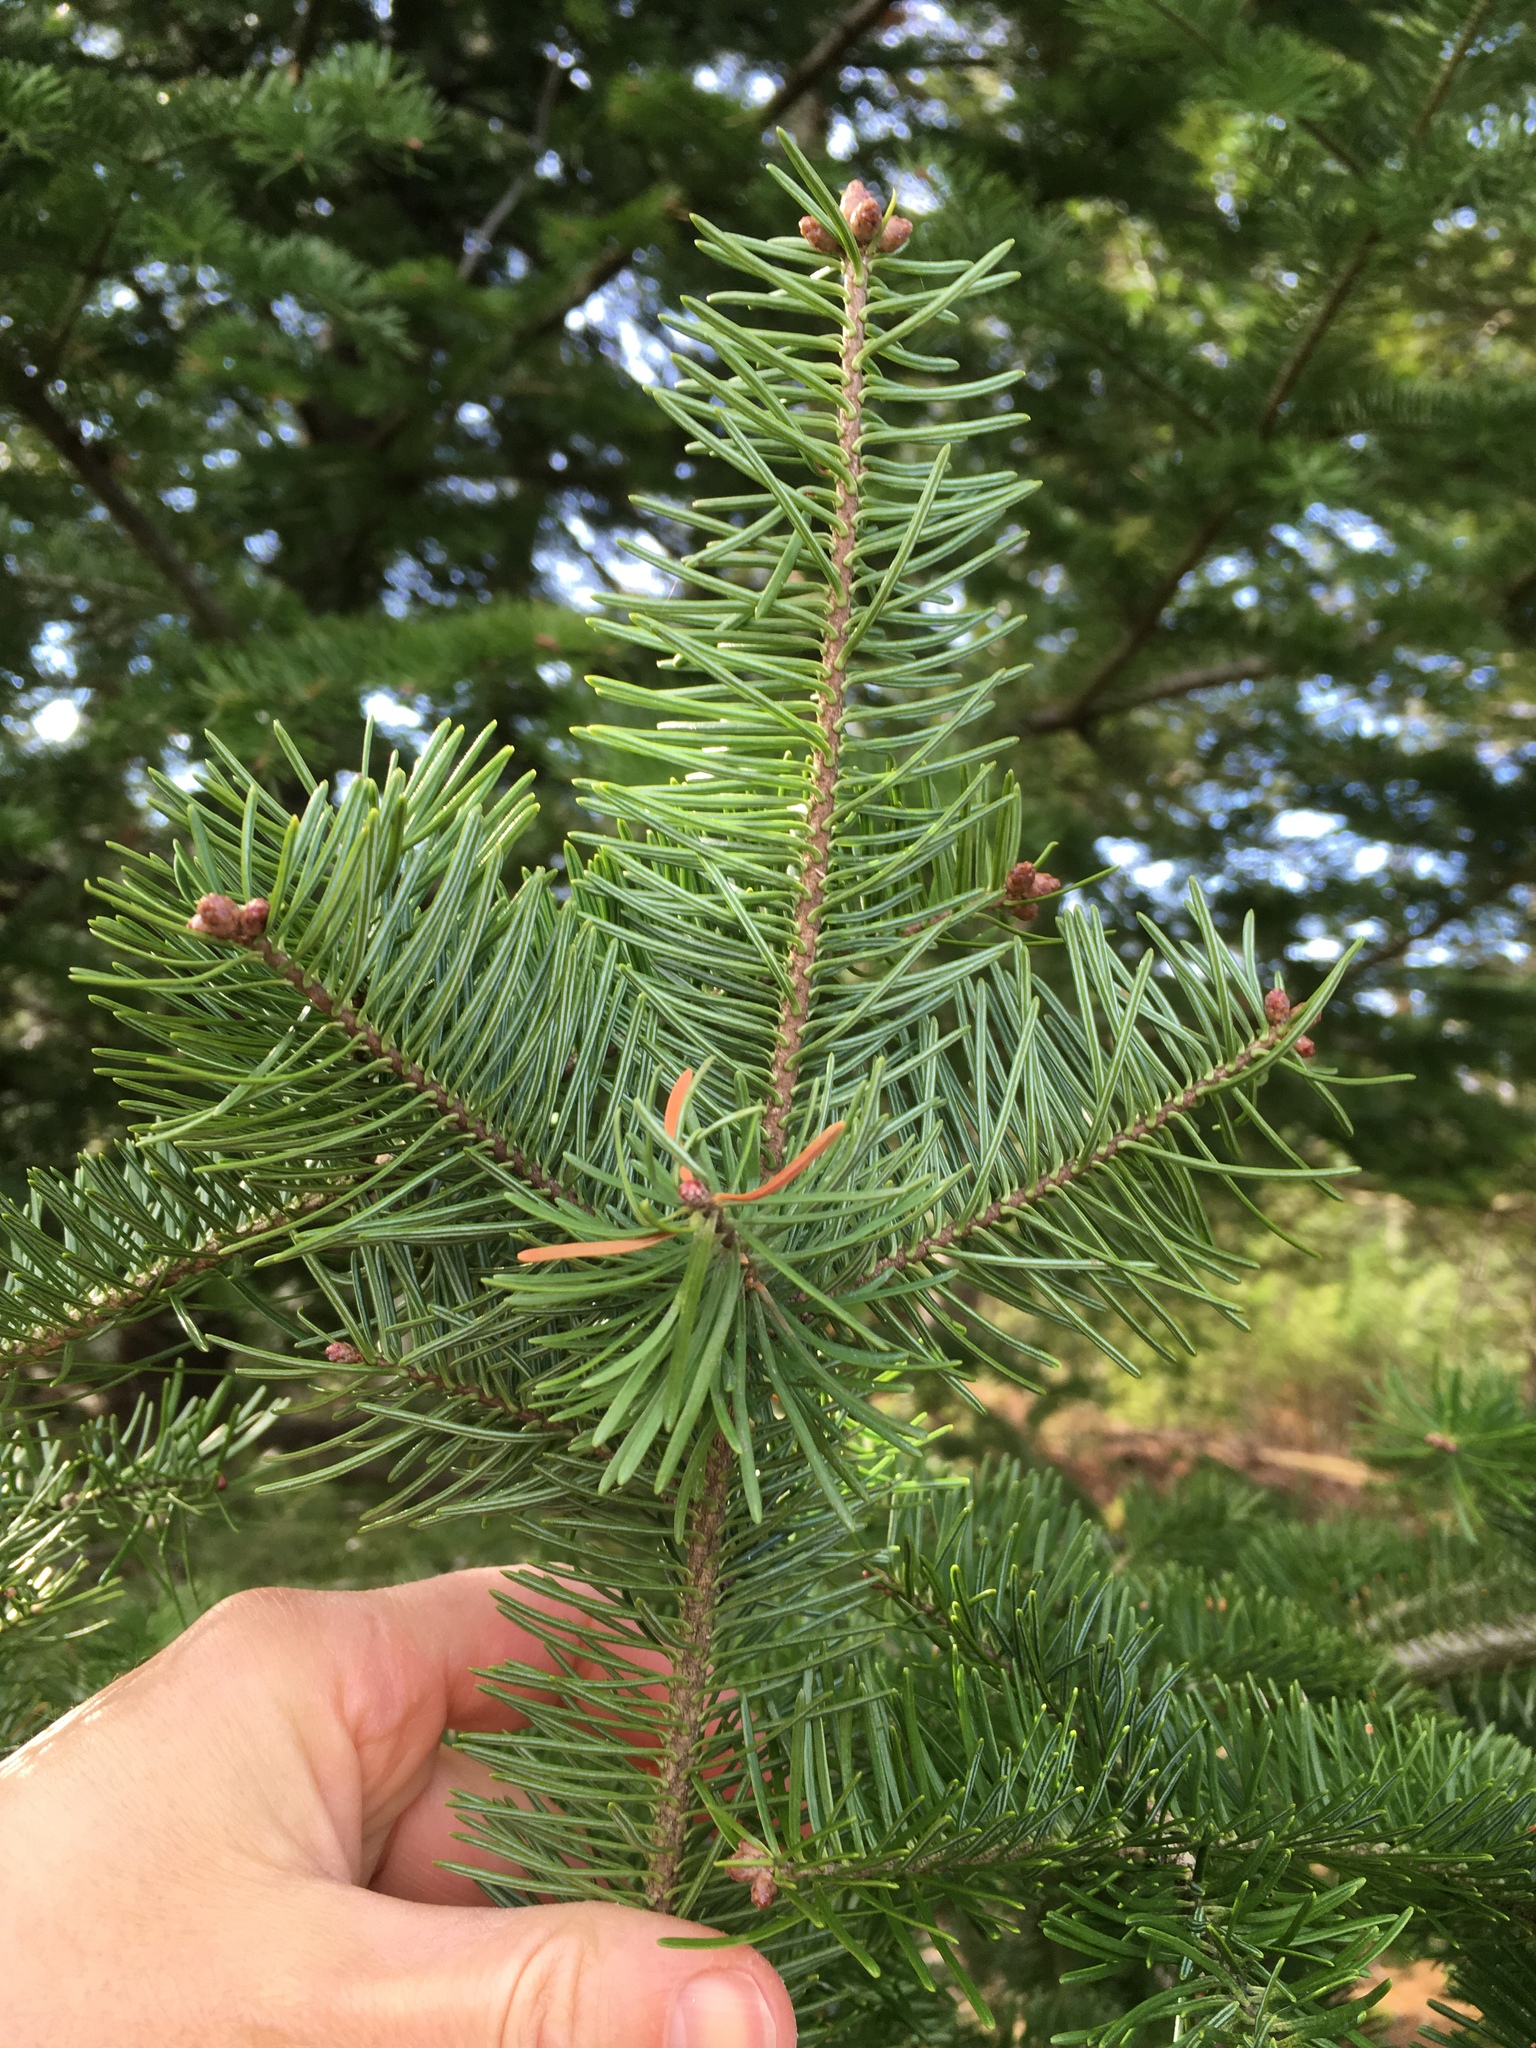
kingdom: Plantae
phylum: Tracheophyta
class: Pinopsida
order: Pinales
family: Pinaceae
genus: Abies
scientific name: Abies balsamea
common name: Balsam fir
